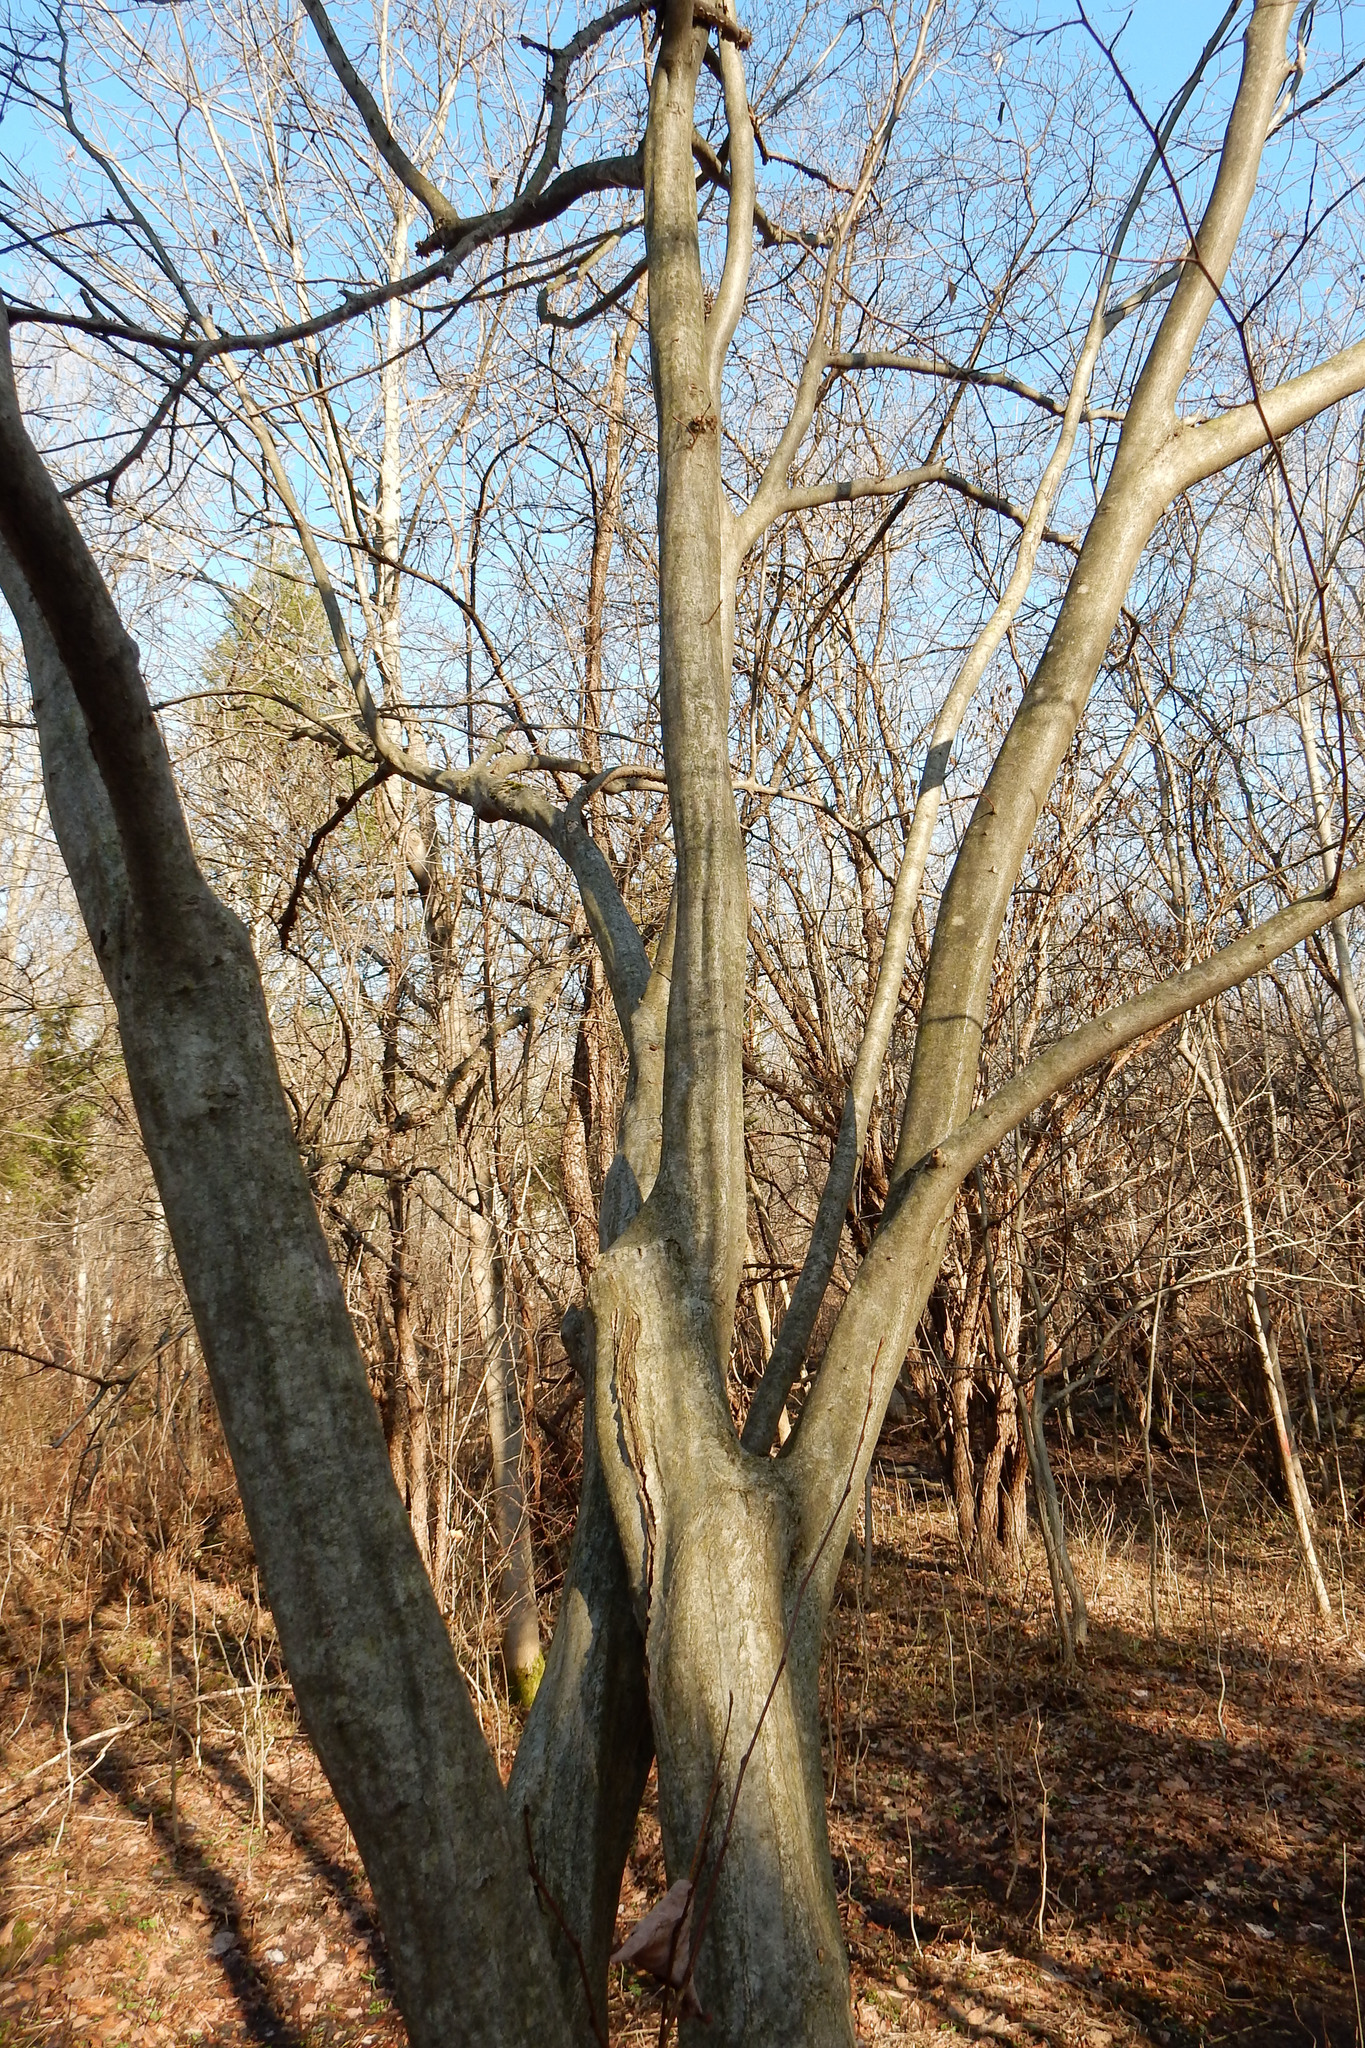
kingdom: Plantae
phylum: Tracheophyta
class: Magnoliopsida
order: Fagales
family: Betulaceae
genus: Carpinus
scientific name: Carpinus caroliniana
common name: American hornbeam
